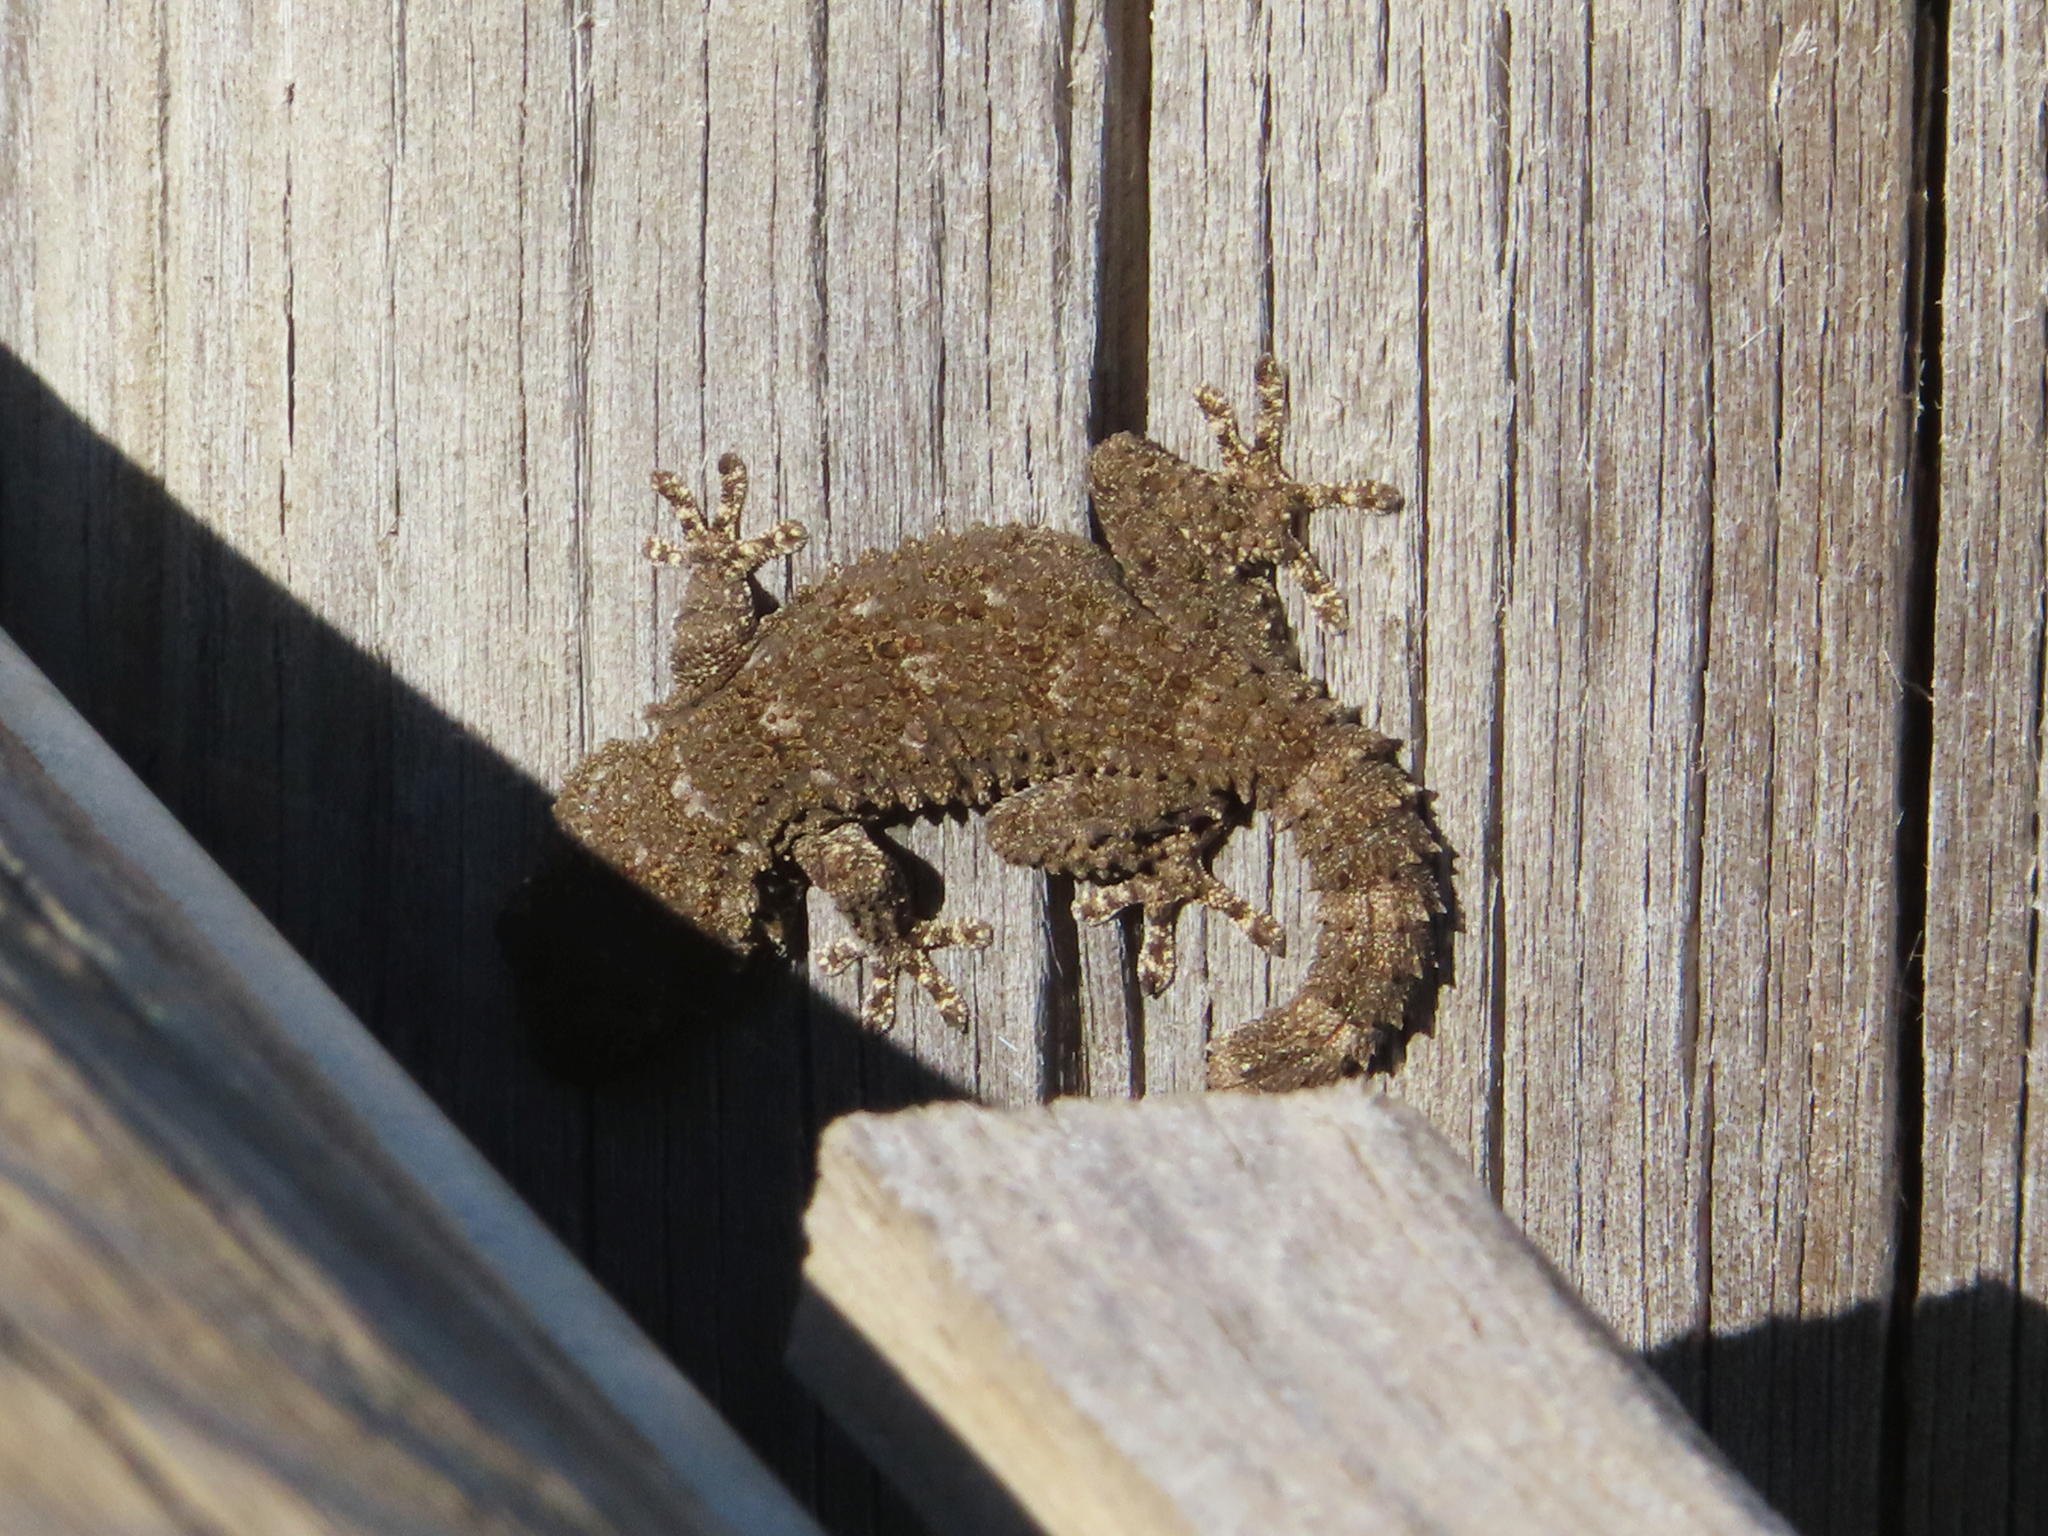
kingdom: Animalia
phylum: Chordata
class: Squamata
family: Phyllodactylidae
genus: Tarentola
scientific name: Tarentola mauritanica
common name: Moorish gecko
